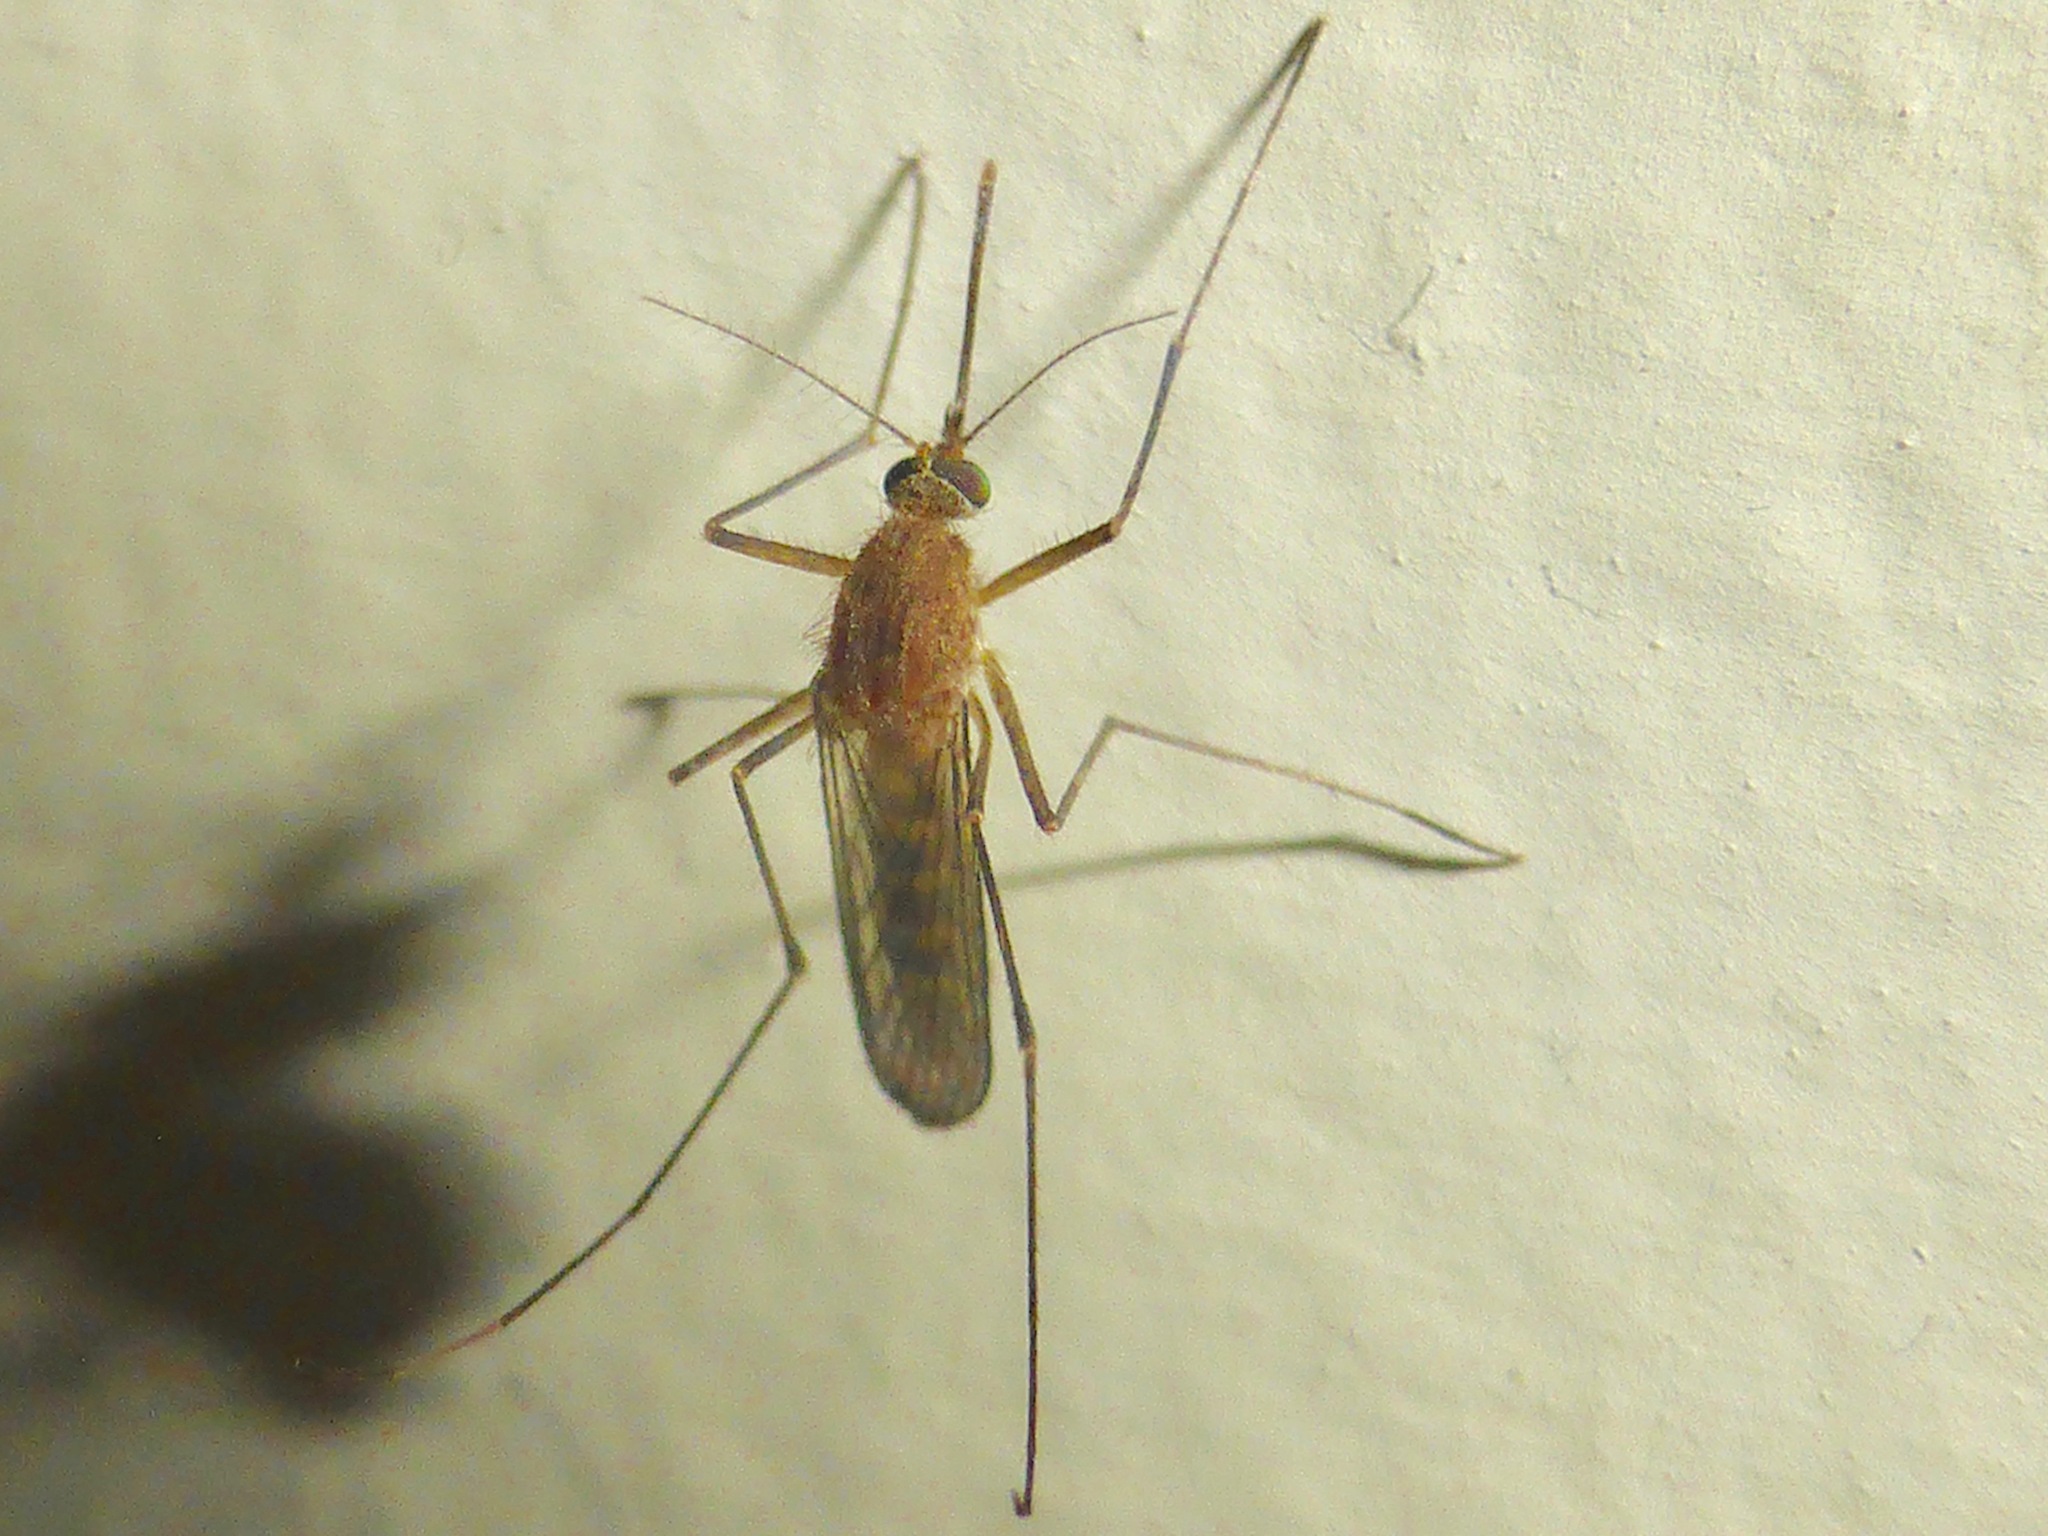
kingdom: Animalia
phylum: Arthropoda
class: Insecta
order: Diptera
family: Culicidae
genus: Culex
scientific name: Culex quinquefasciatus
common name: Southern house mosquito
